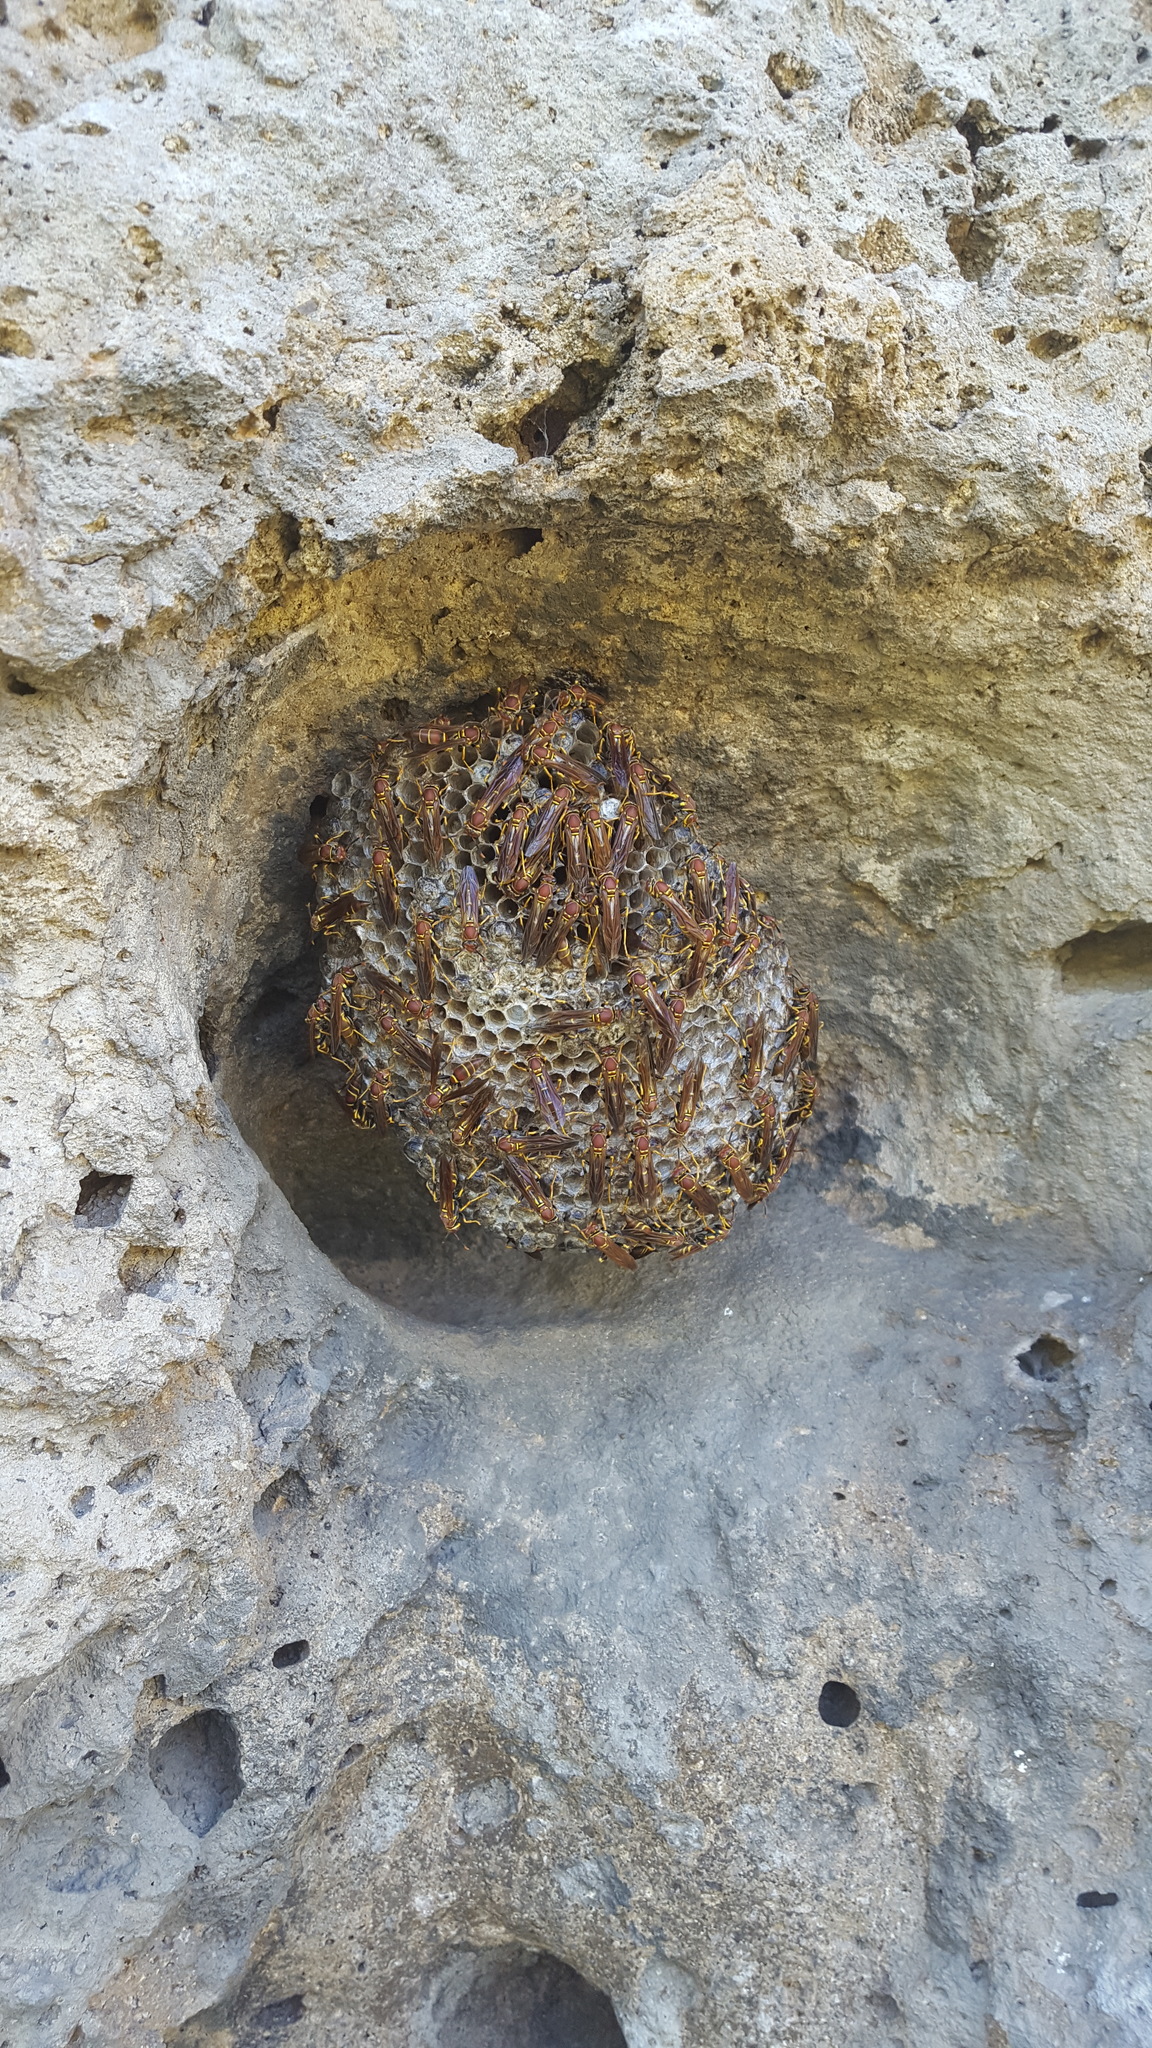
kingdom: Animalia
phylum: Arthropoda
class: Insecta
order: Hymenoptera
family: Eumenidae
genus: Polistes
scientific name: Polistes instabilis
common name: Unstable paper wasp
